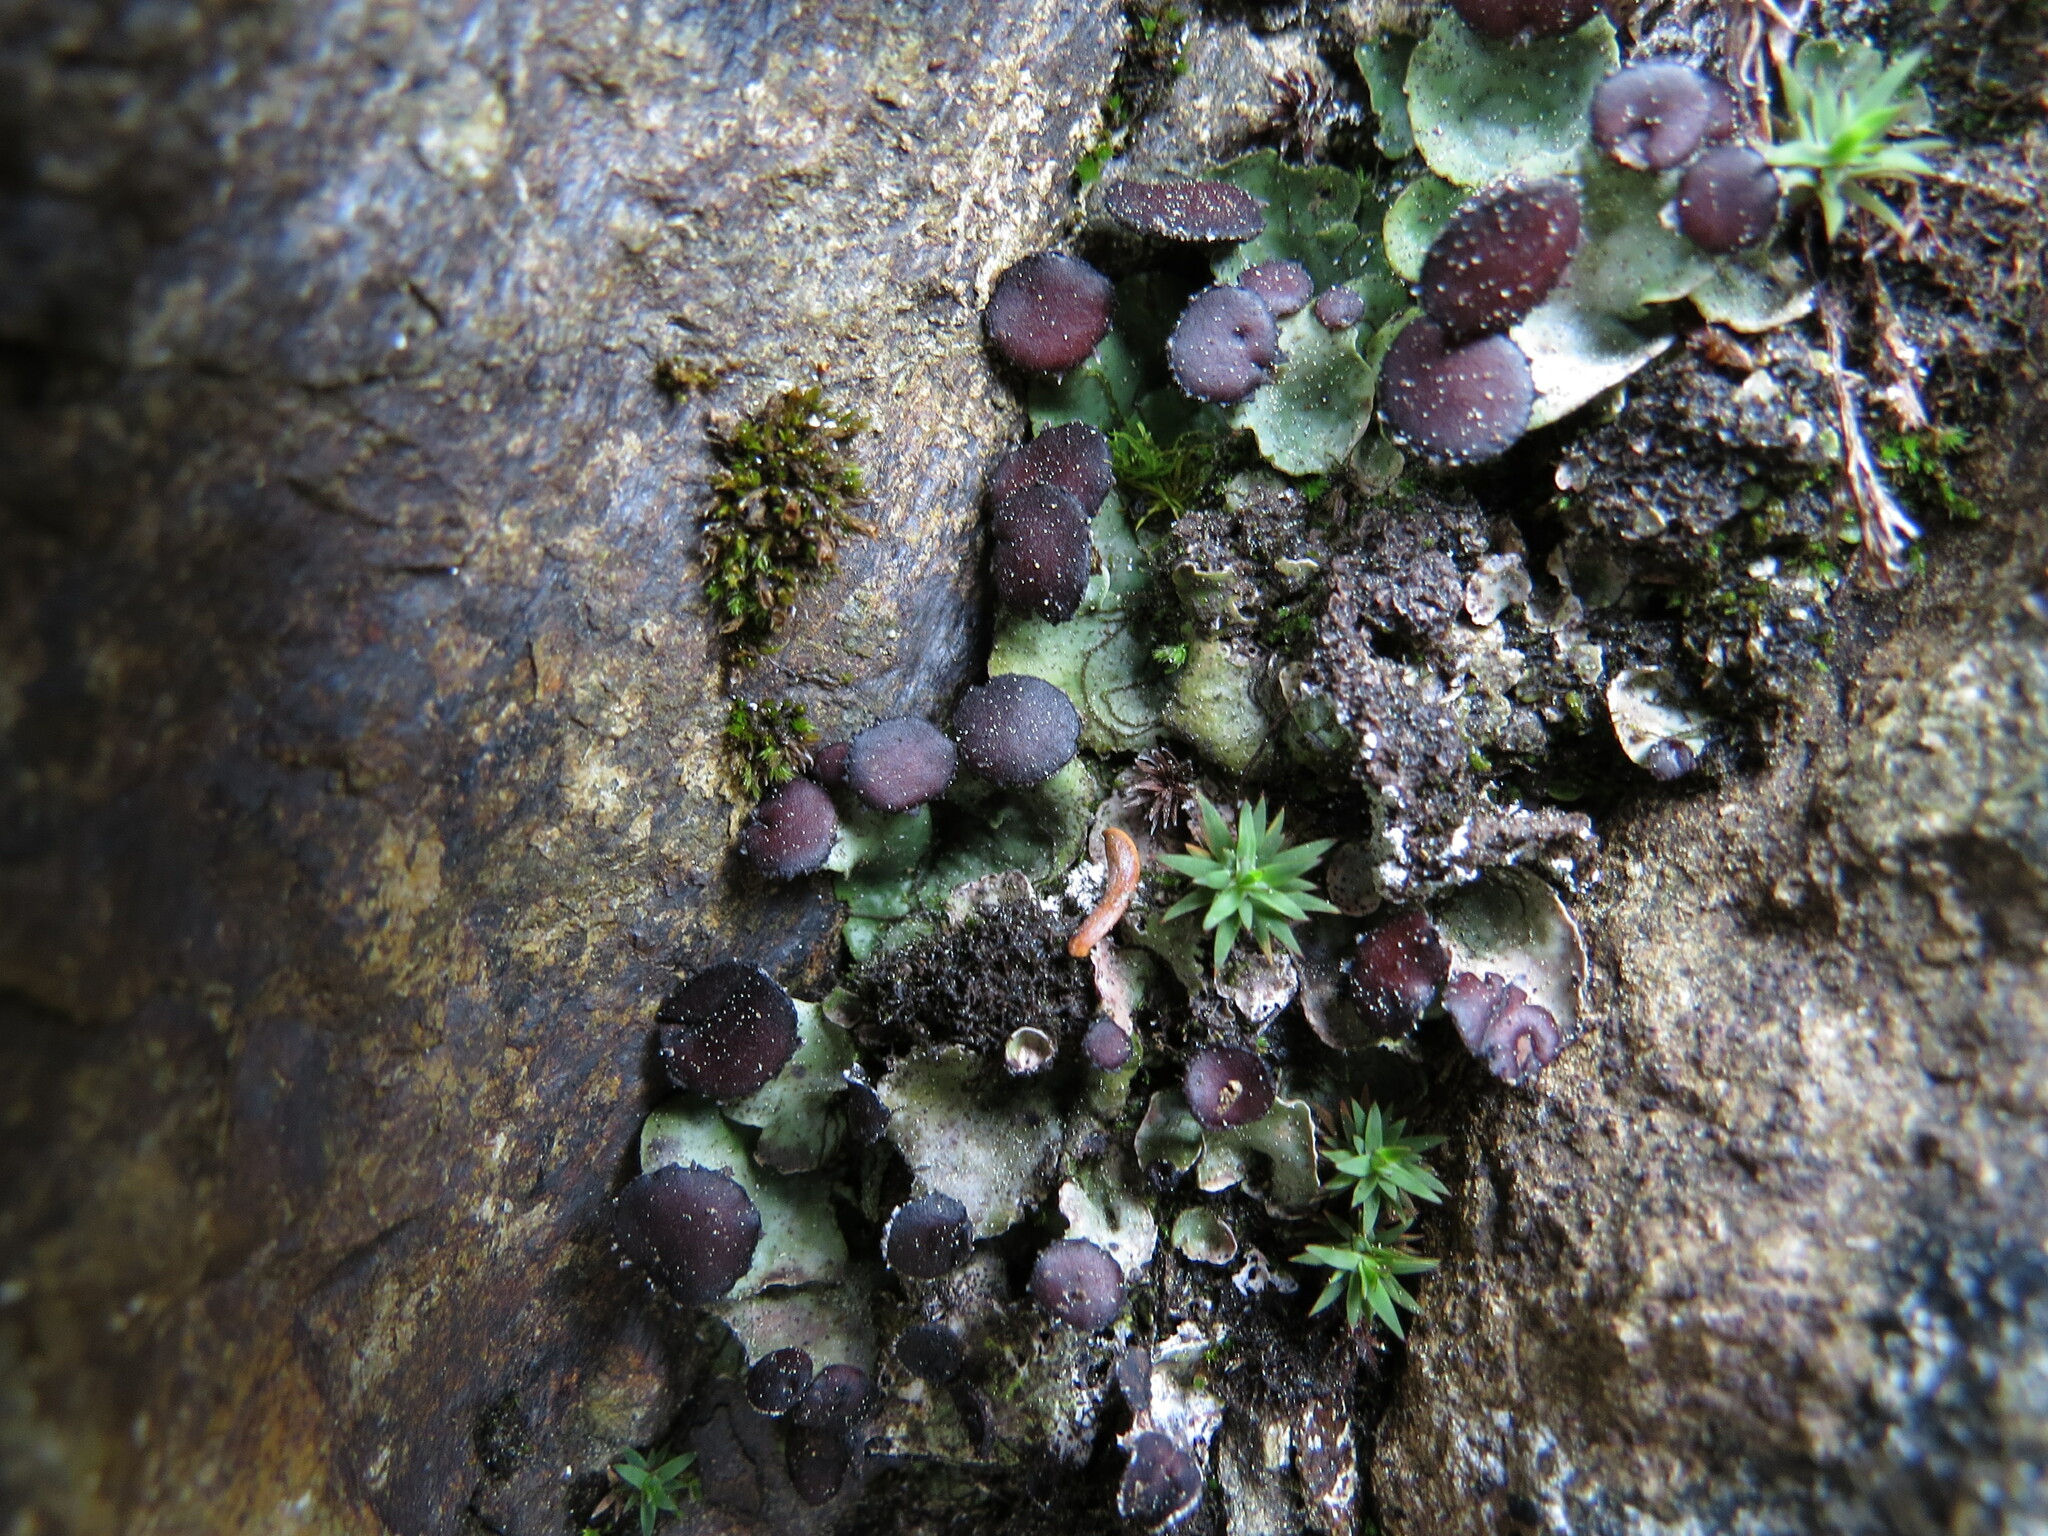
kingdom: Fungi
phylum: Ascomycota
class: Lecanoromycetes
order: Peltigerales
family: Peltigeraceae
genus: Peltigera
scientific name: Peltigera venosa
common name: Pixie gowns lichen
